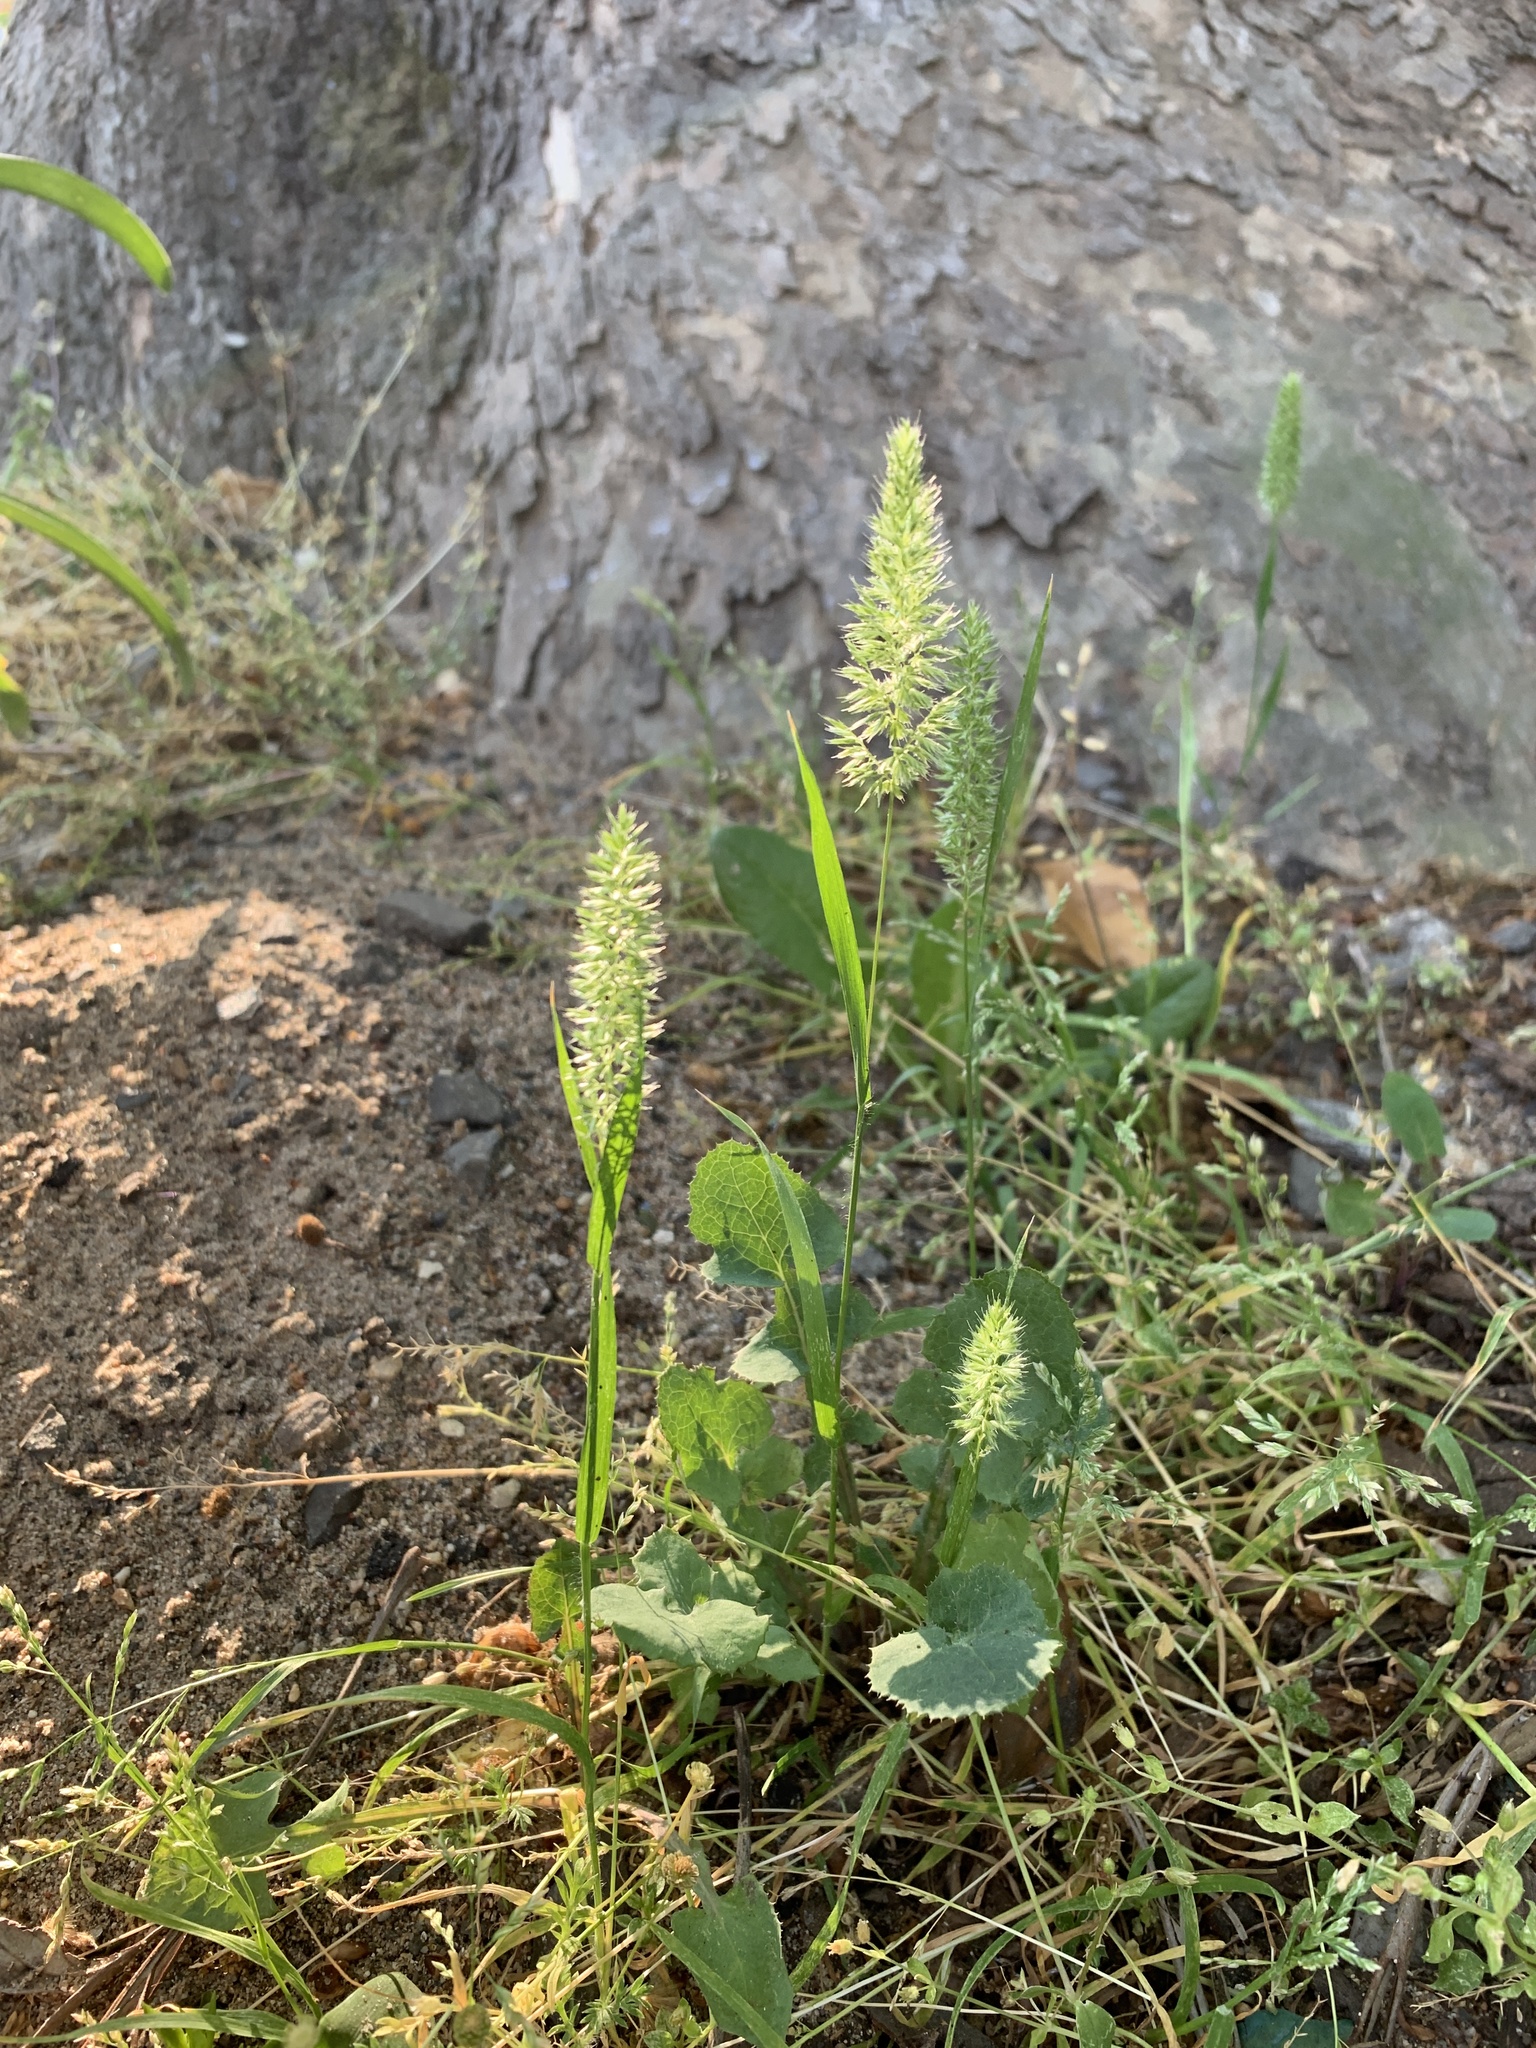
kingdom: Plantae
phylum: Tracheophyta
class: Liliopsida
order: Poales
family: Poaceae
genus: Rostraria
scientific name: Rostraria cristata
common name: Mediterranean hair-grass
